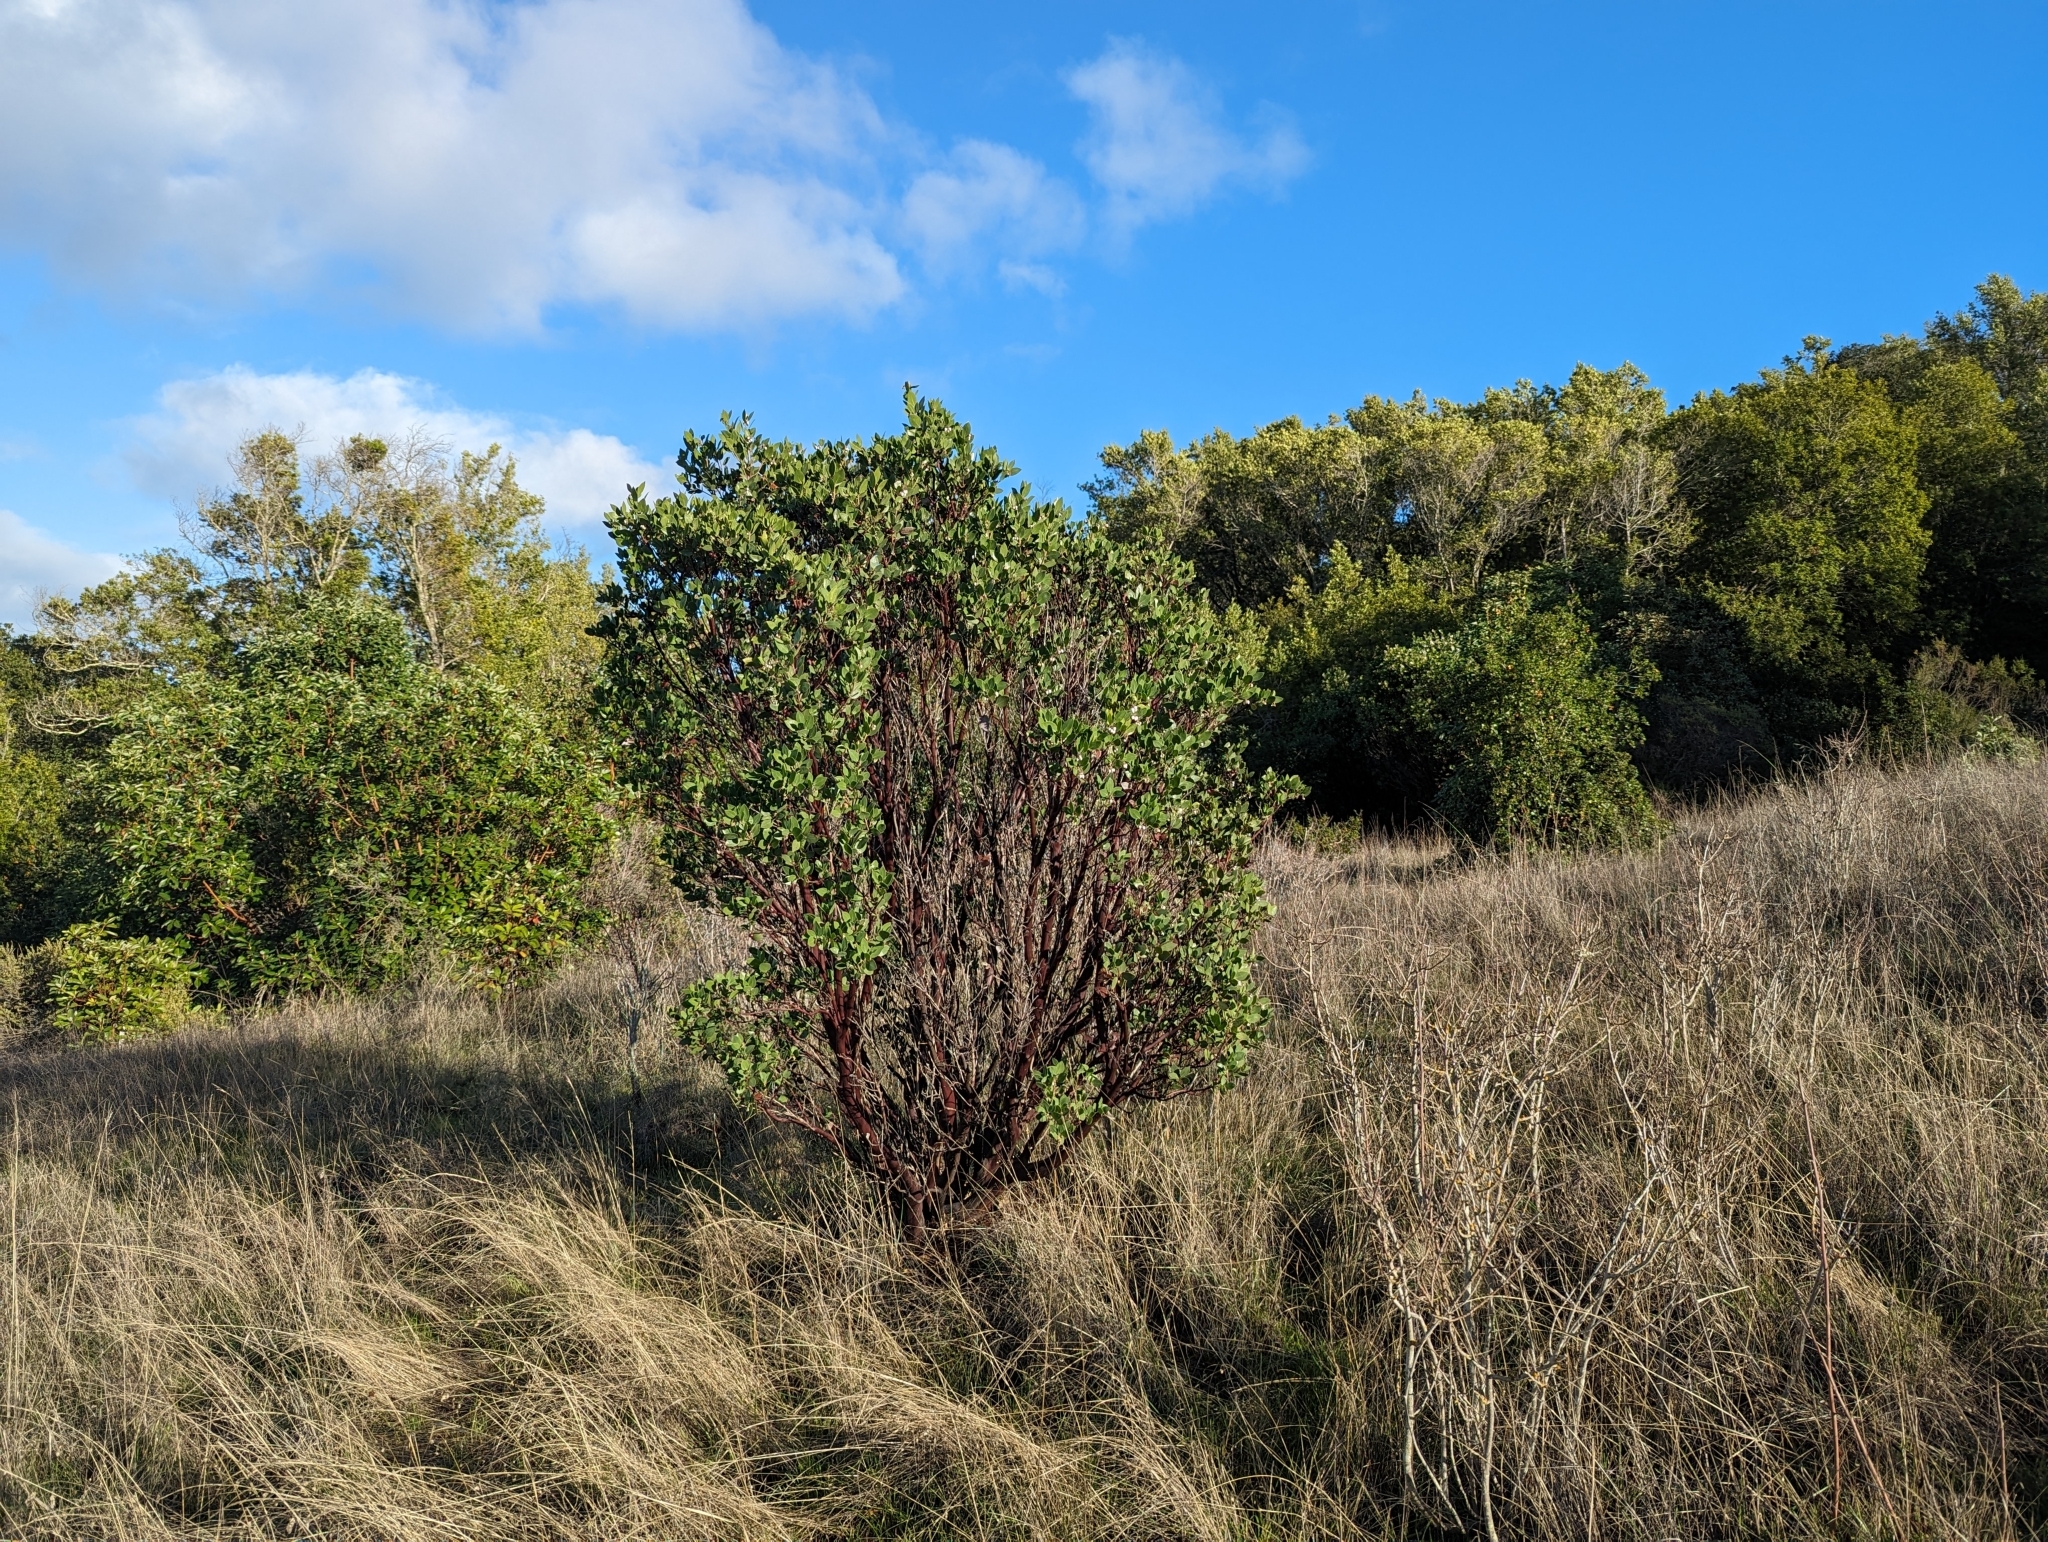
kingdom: Plantae
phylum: Tracheophyta
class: Magnoliopsida
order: Ericales
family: Ericaceae
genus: Arctostaphylos
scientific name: Arctostaphylos manzanita
